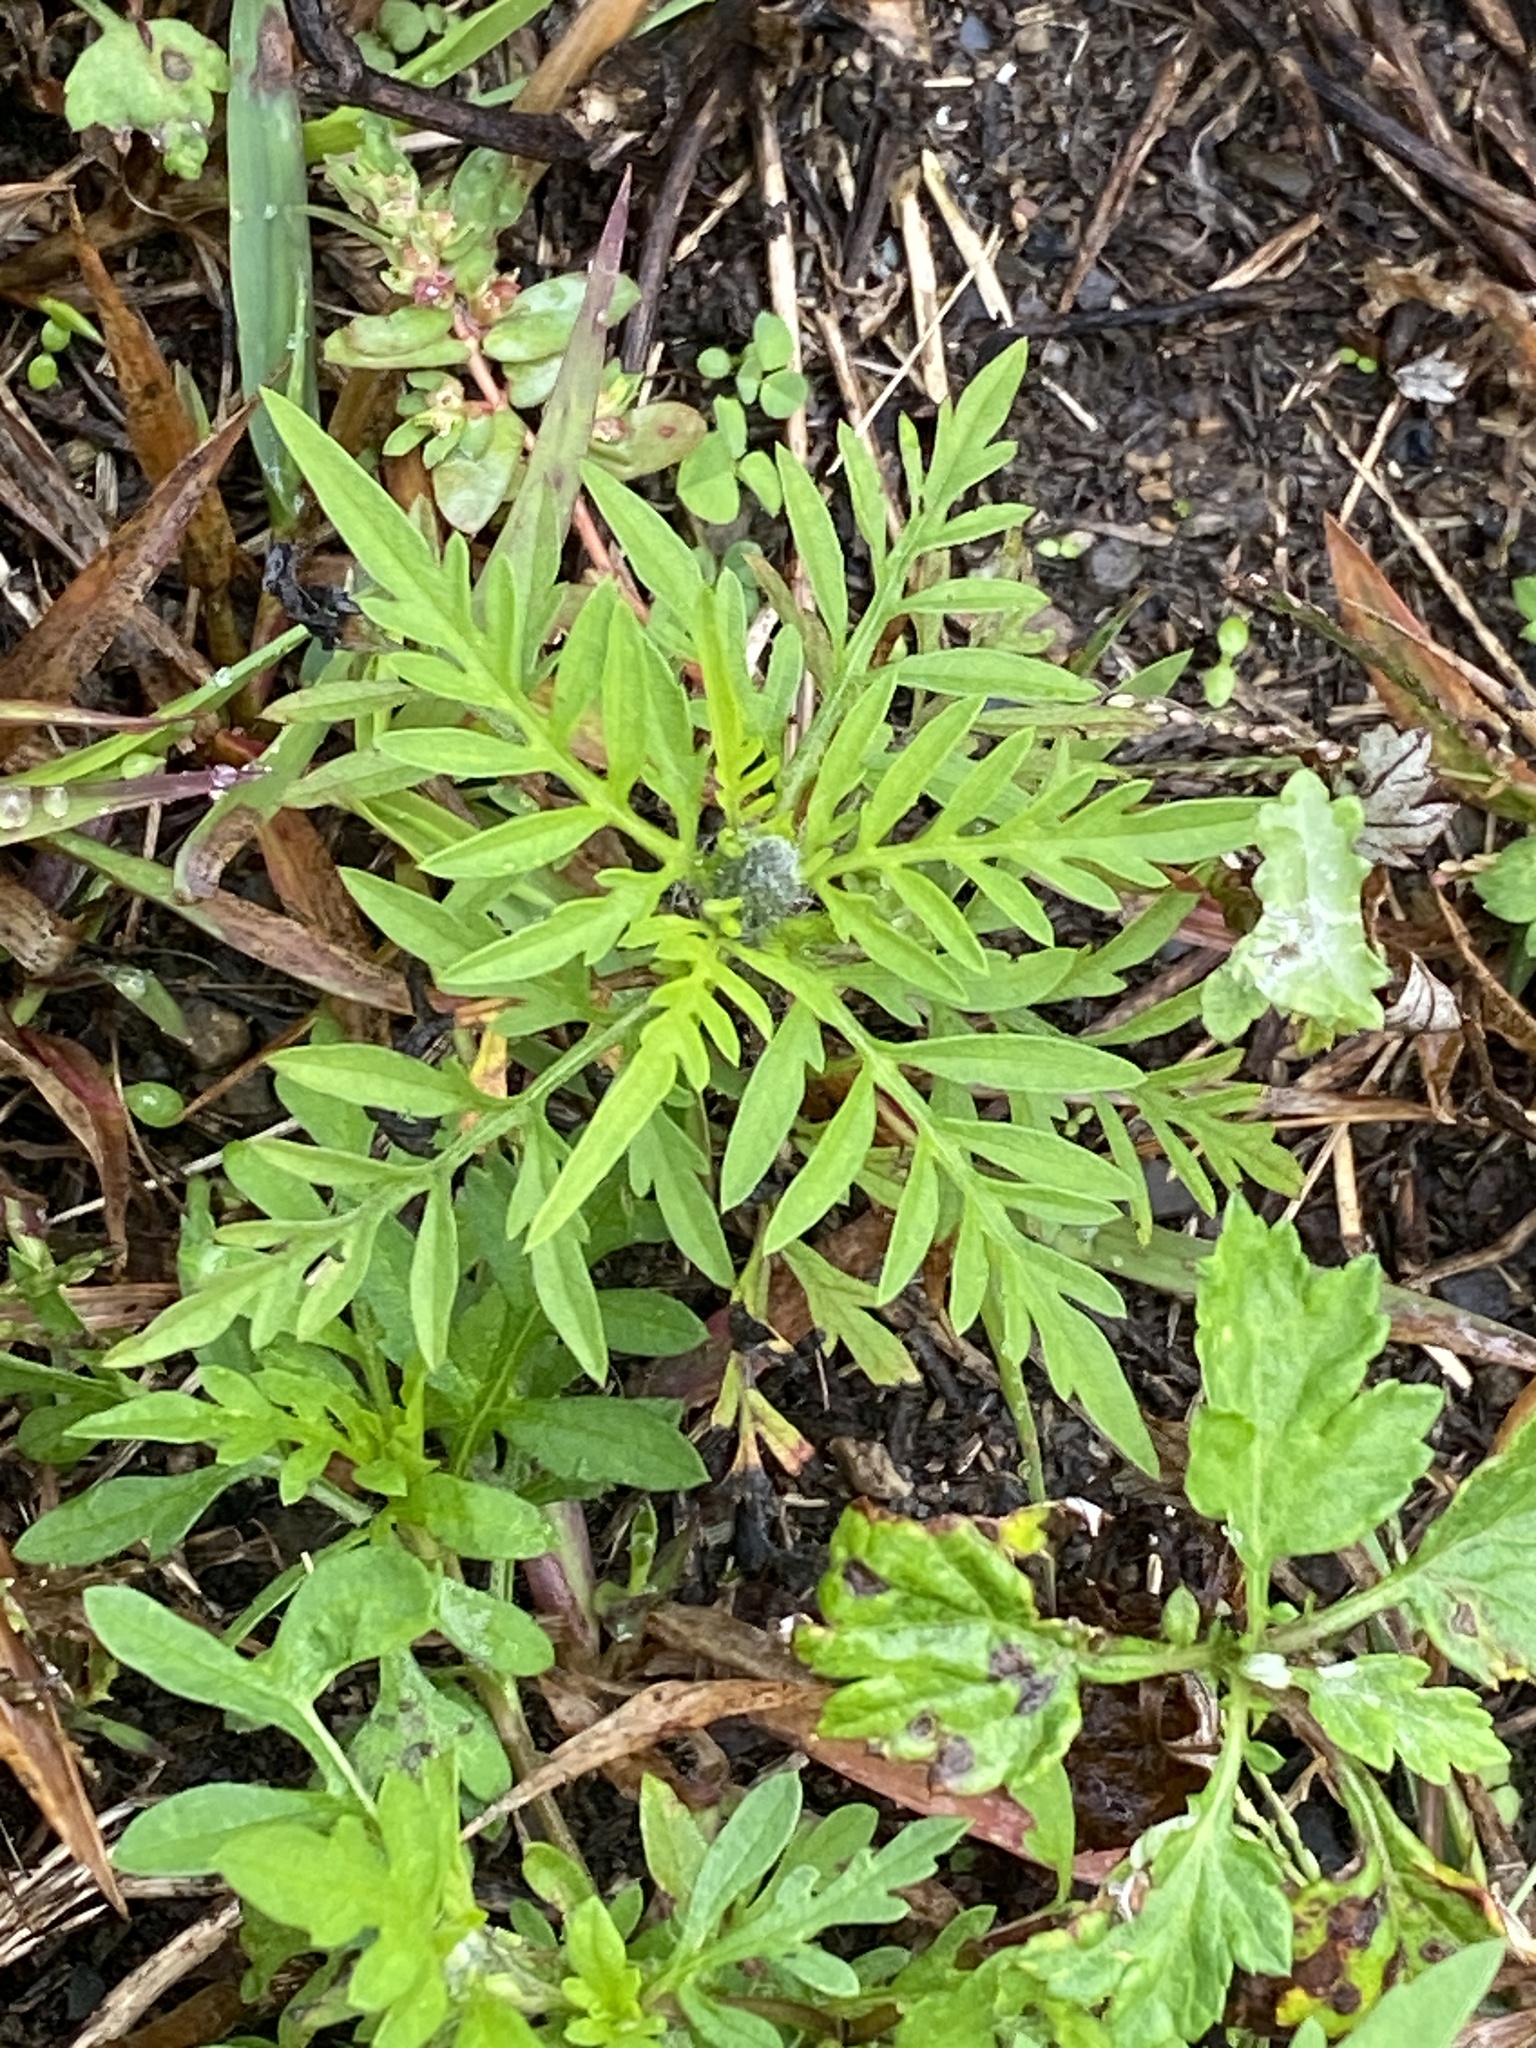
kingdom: Plantae
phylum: Tracheophyta
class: Magnoliopsida
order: Asterales
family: Asteraceae
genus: Ambrosia
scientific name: Ambrosia artemisiifolia
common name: Annual ragweed
